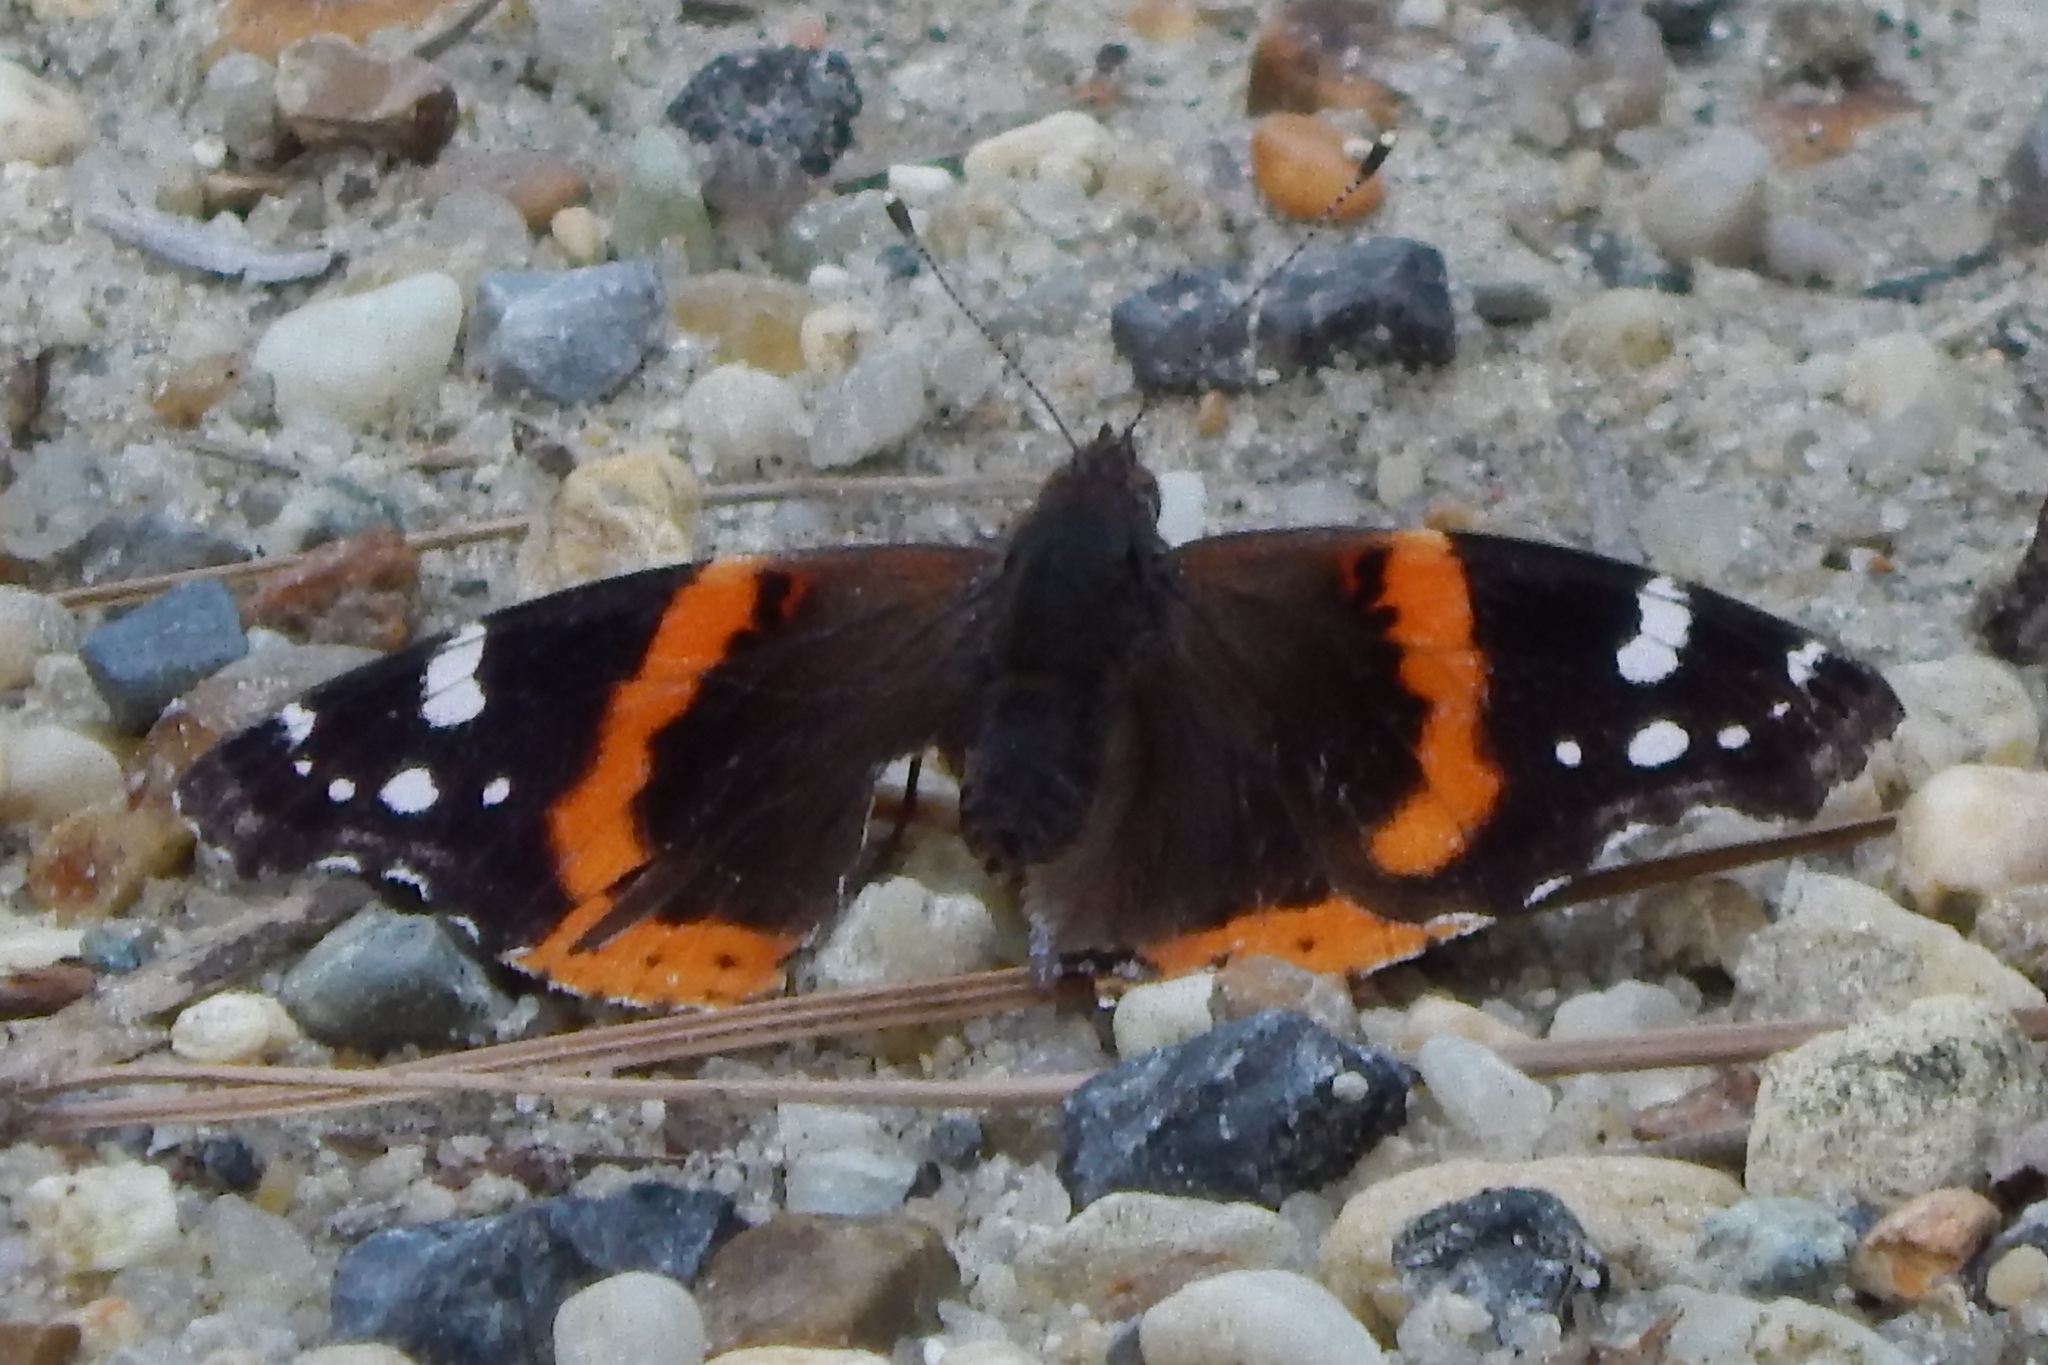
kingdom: Animalia
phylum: Arthropoda
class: Insecta
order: Lepidoptera
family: Nymphalidae
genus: Vanessa
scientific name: Vanessa atalanta
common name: Red admiral
